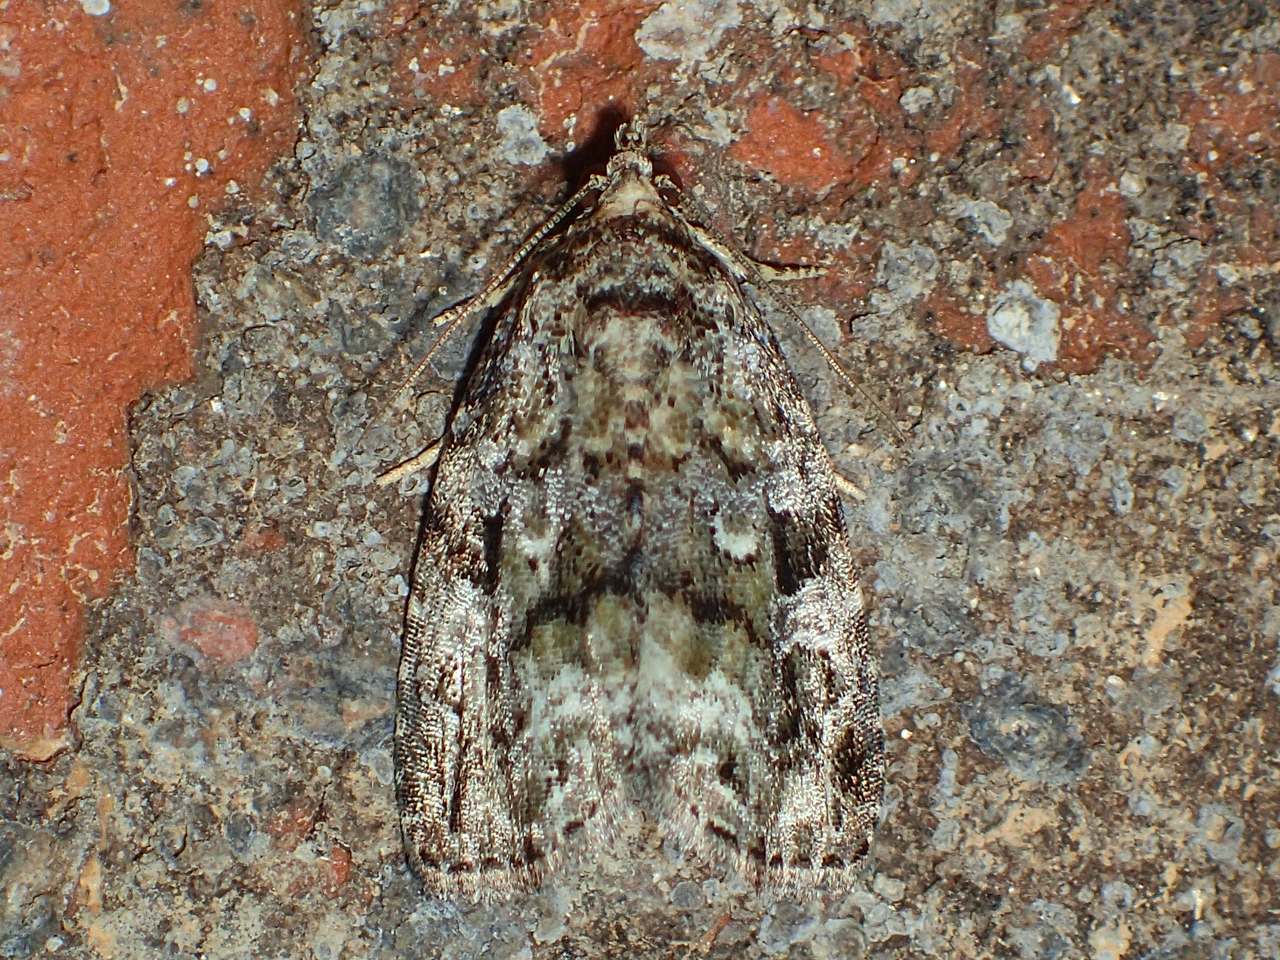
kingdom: Animalia
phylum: Arthropoda
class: Insecta
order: Lepidoptera
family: Noctuidae
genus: Protodeltote
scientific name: Protodeltote muscosula
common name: Large mossy glyph
